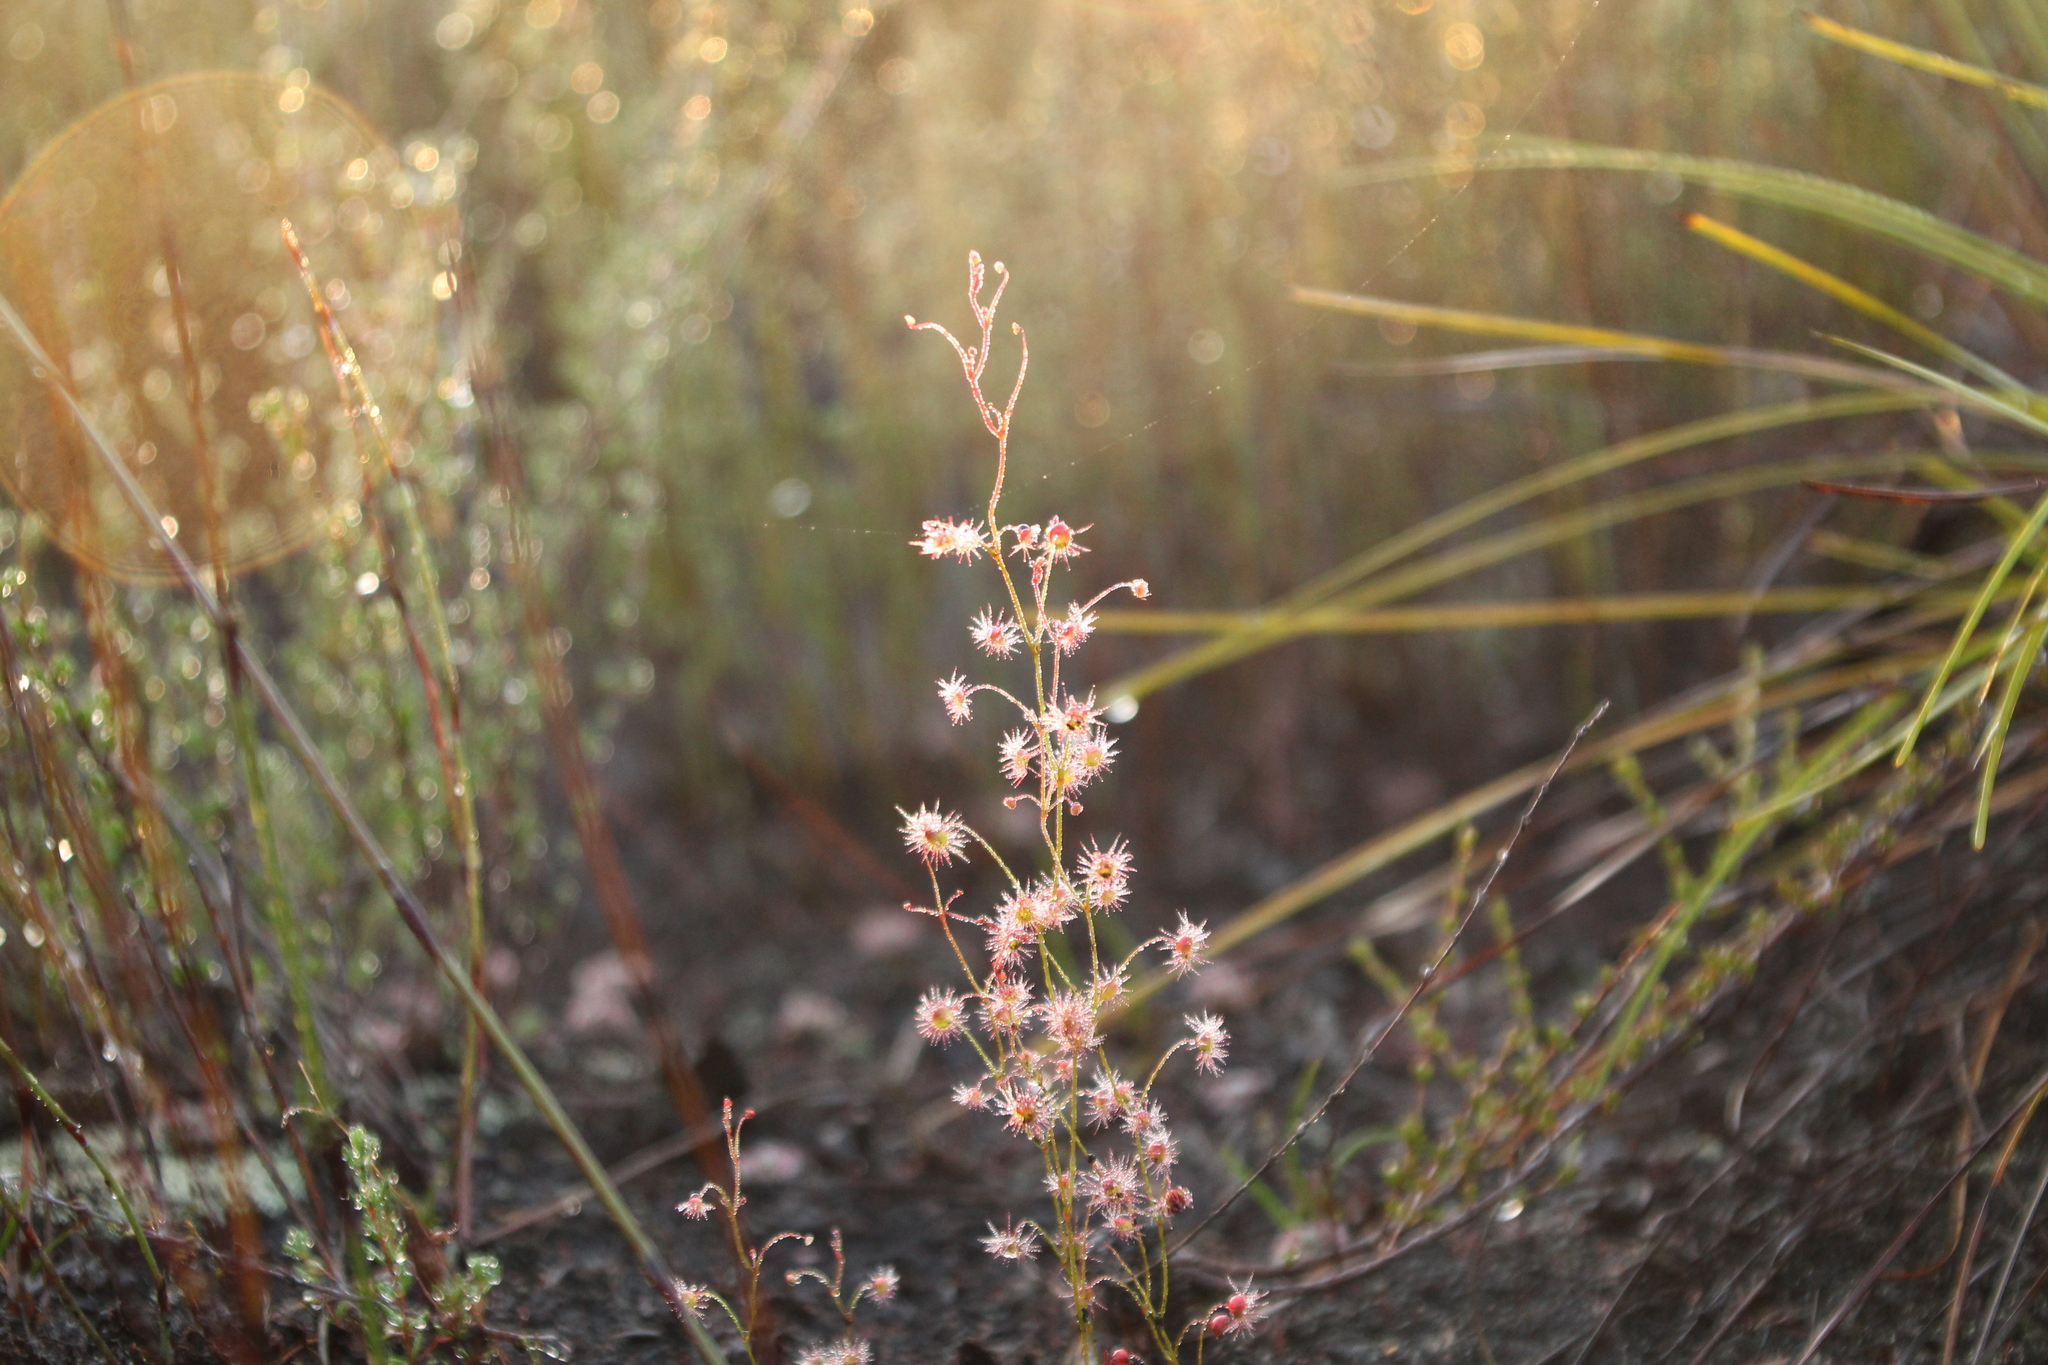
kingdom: Plantae
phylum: Tracheophyta
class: Magnoliopsida
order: Caryophyllales
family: Droseraceae
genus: Drosera
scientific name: Drosera
